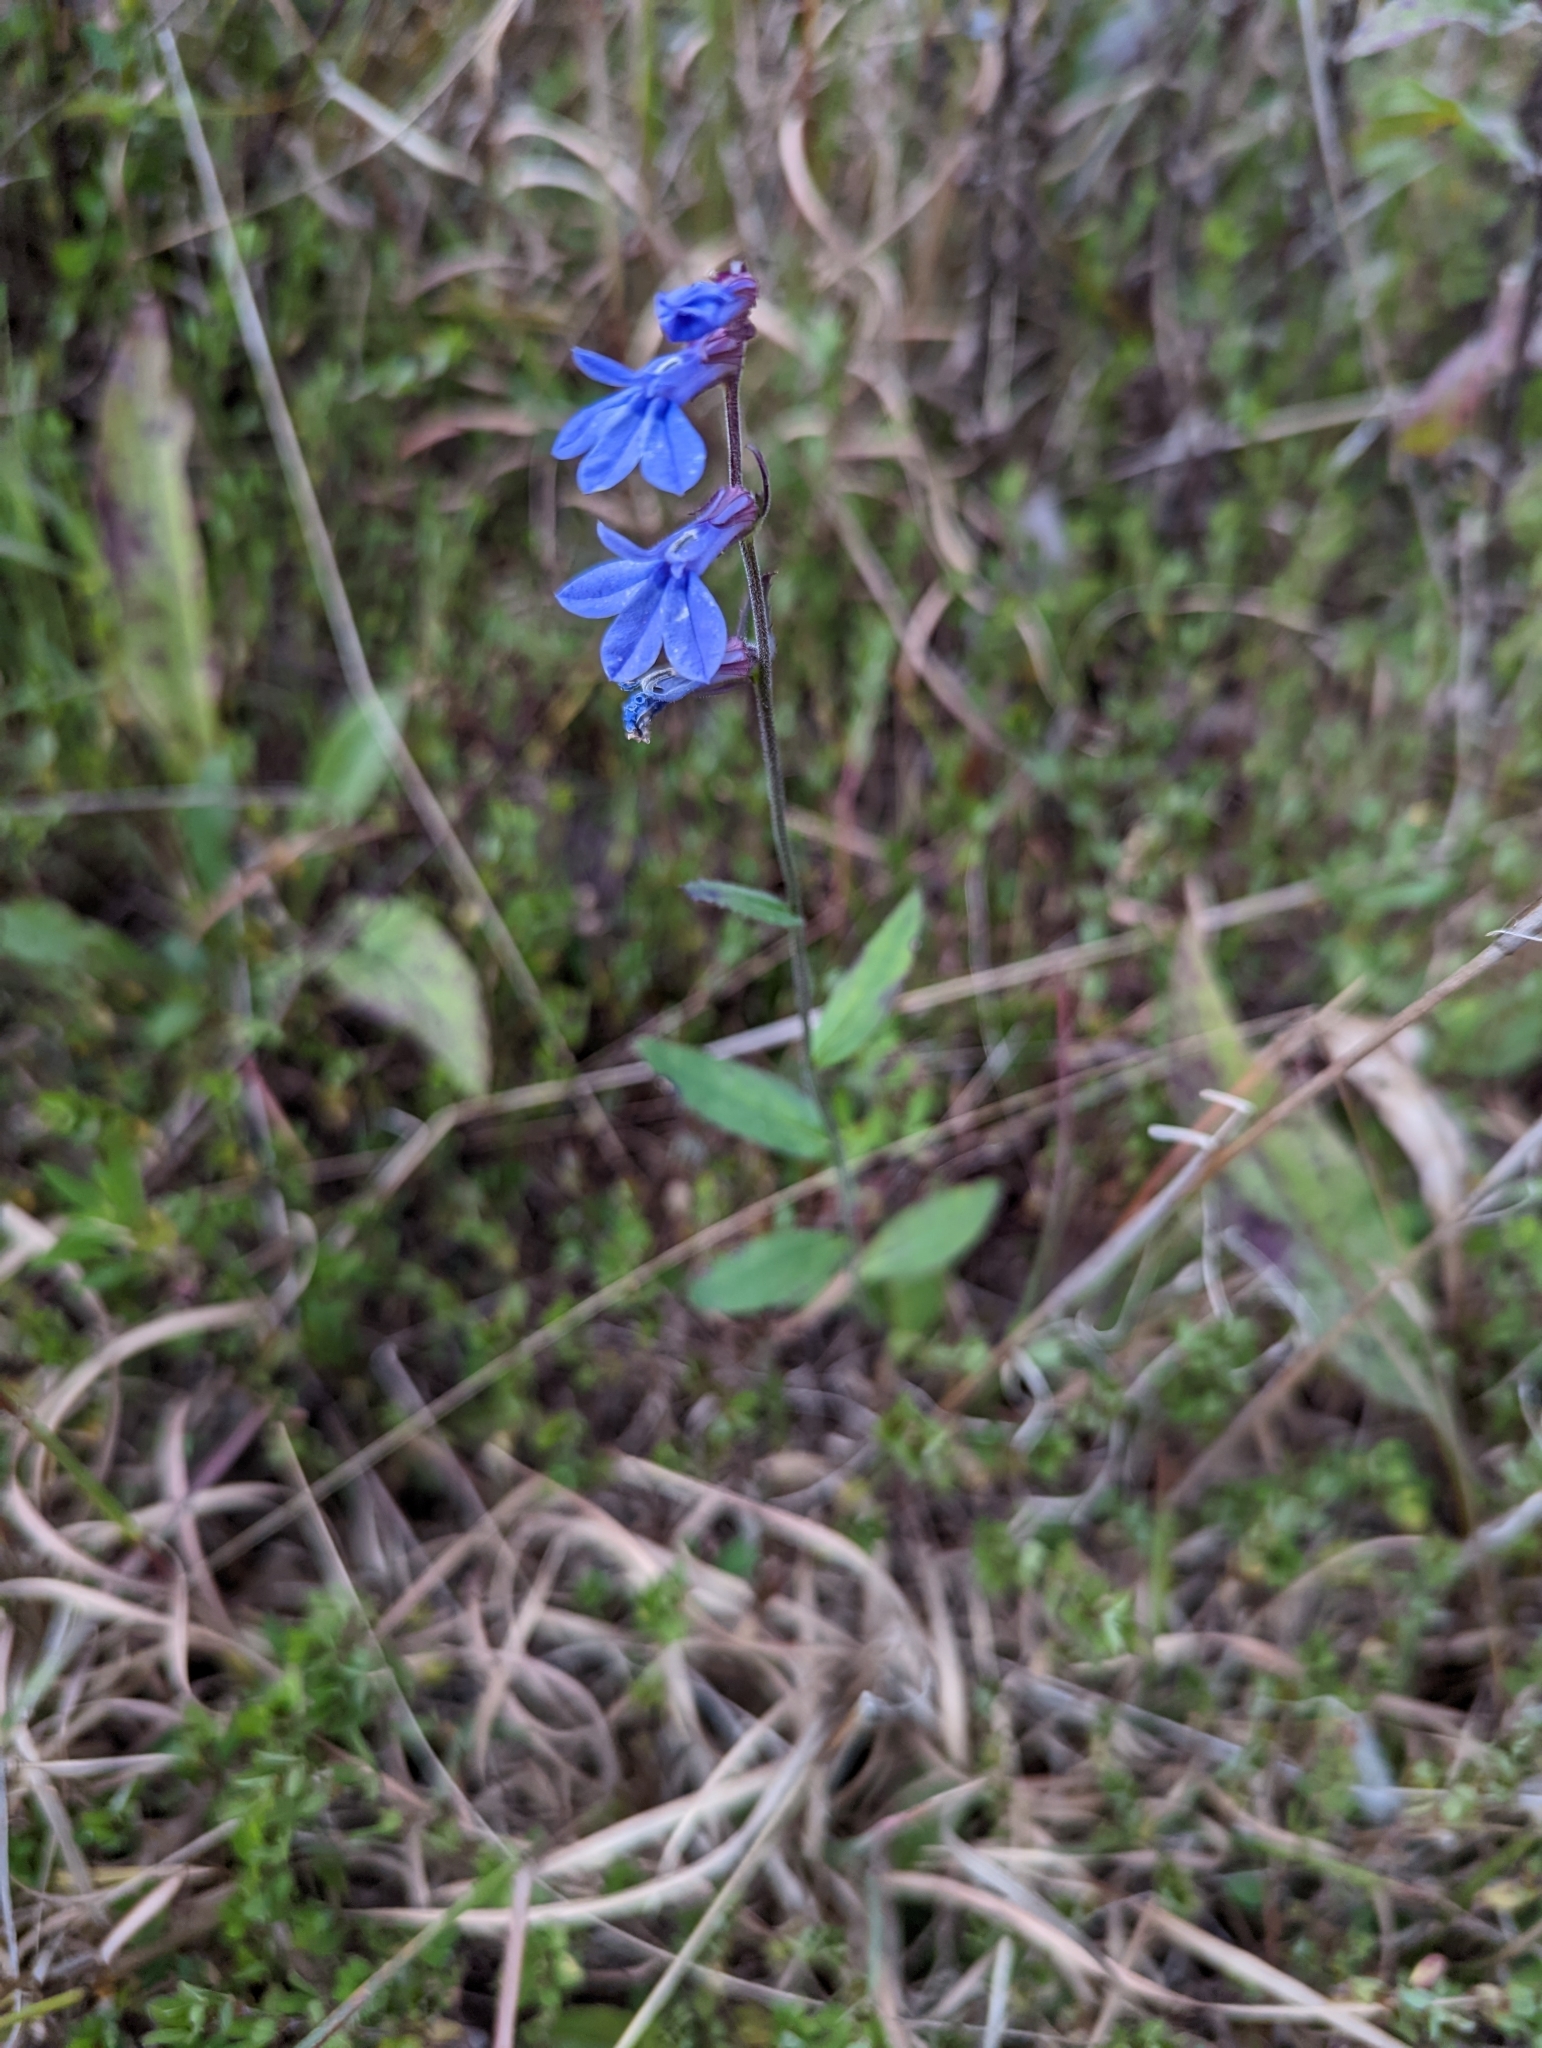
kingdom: Plantae
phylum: Tracheophyta
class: Magnoliopsida
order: Asterales
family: Campanulaceae
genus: Lobelia
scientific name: Lobelia puberula
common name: Purple dewdrop
